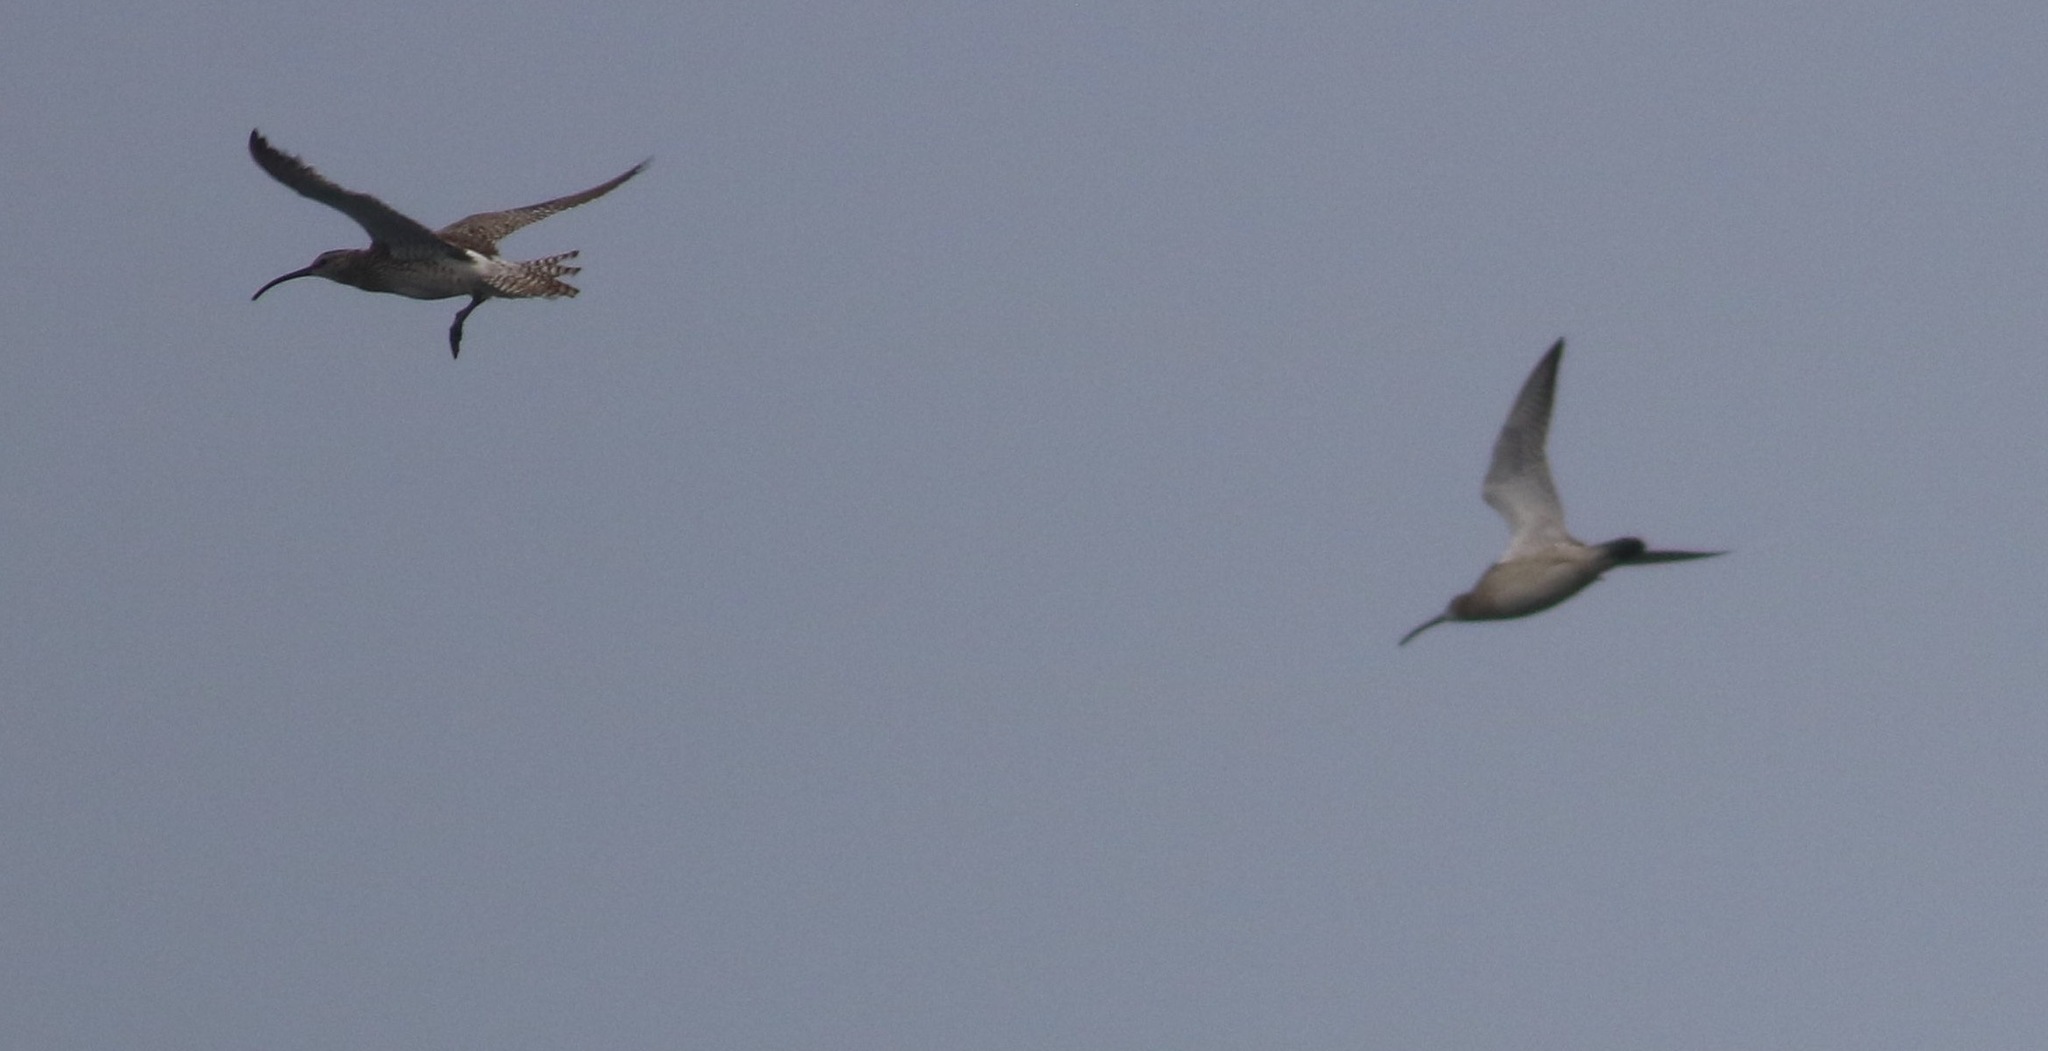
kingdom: Animalia
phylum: Chordata
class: Aves
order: Charadriiformes
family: Scolopacidae
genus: Numenius
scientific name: Numenius phaeopus
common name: Whimbrel
